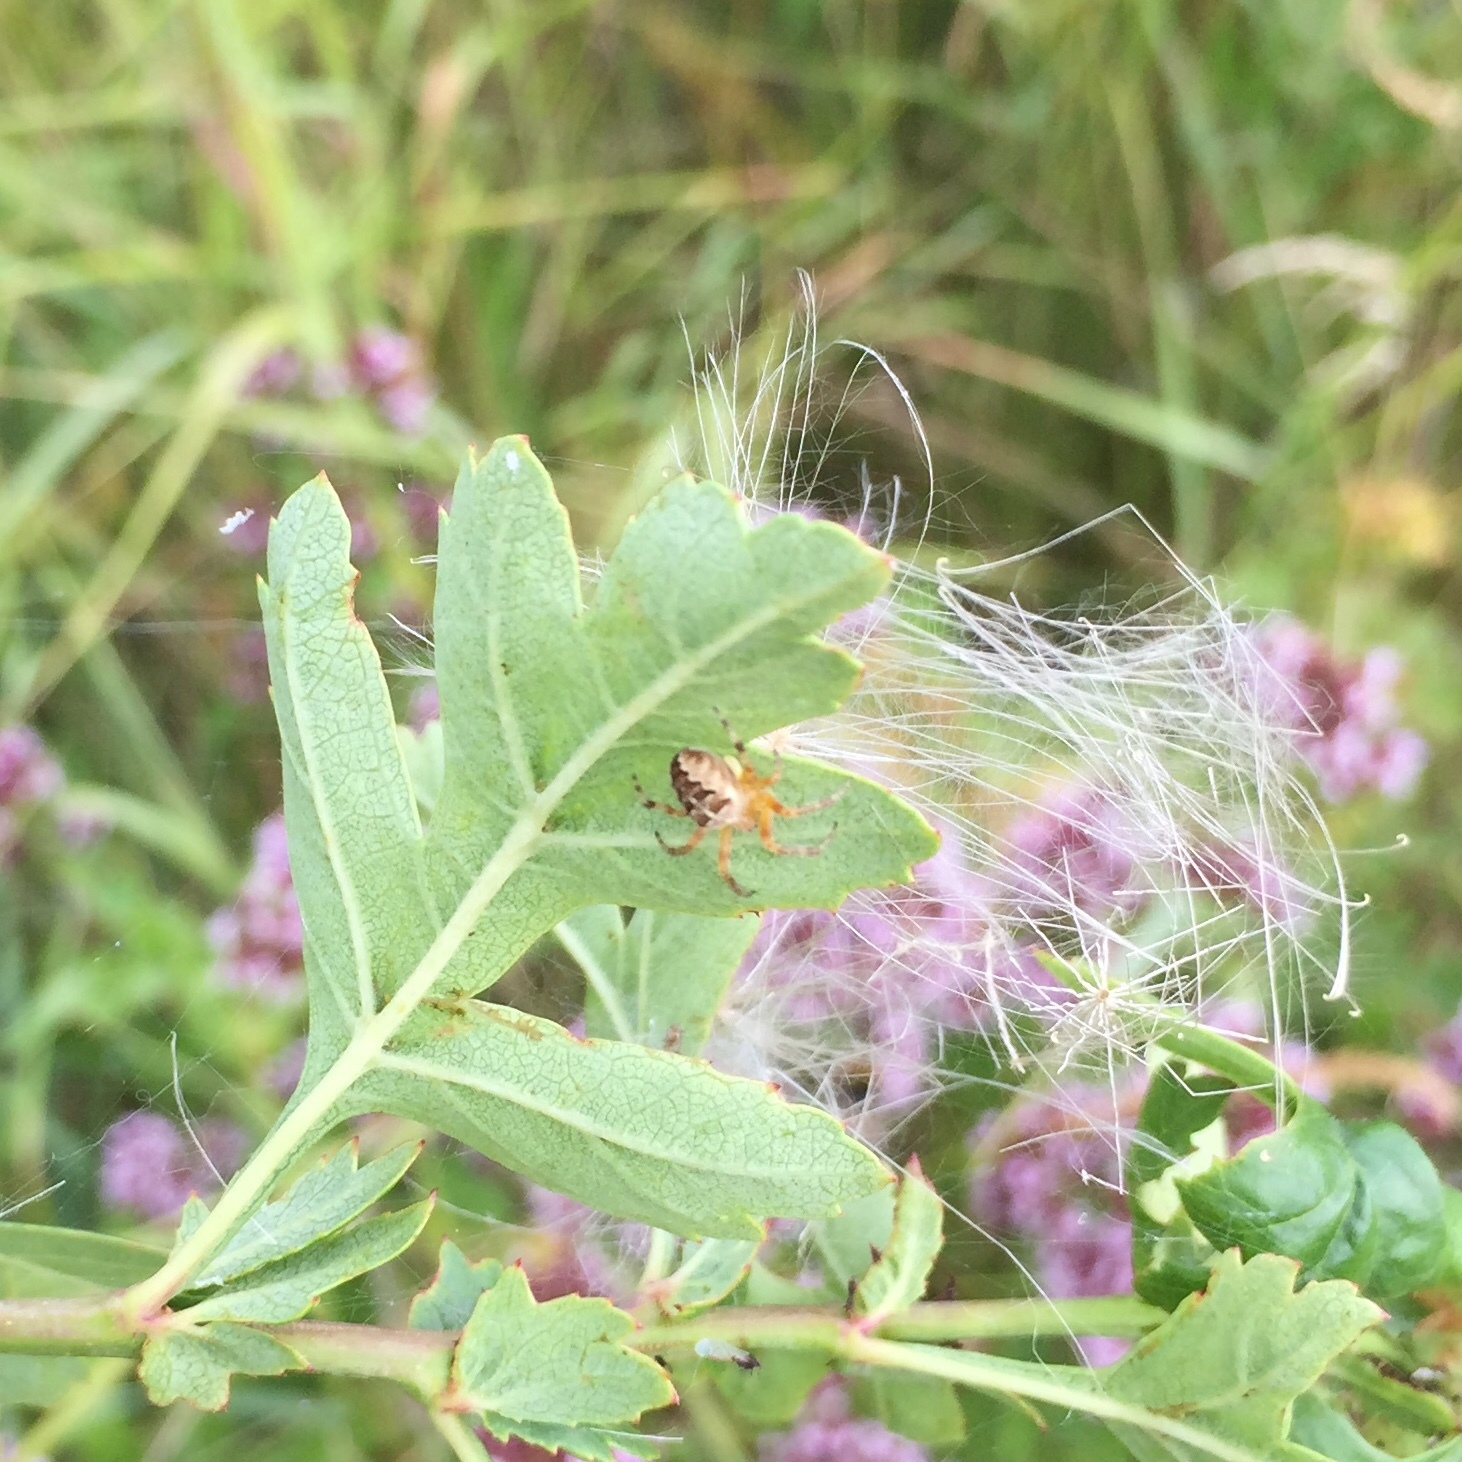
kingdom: Animalia
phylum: Arthropoda
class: Arachnida
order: Araneae
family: Araneidae
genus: Araneus
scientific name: Araneus diadematus
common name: Cross orbweaver
